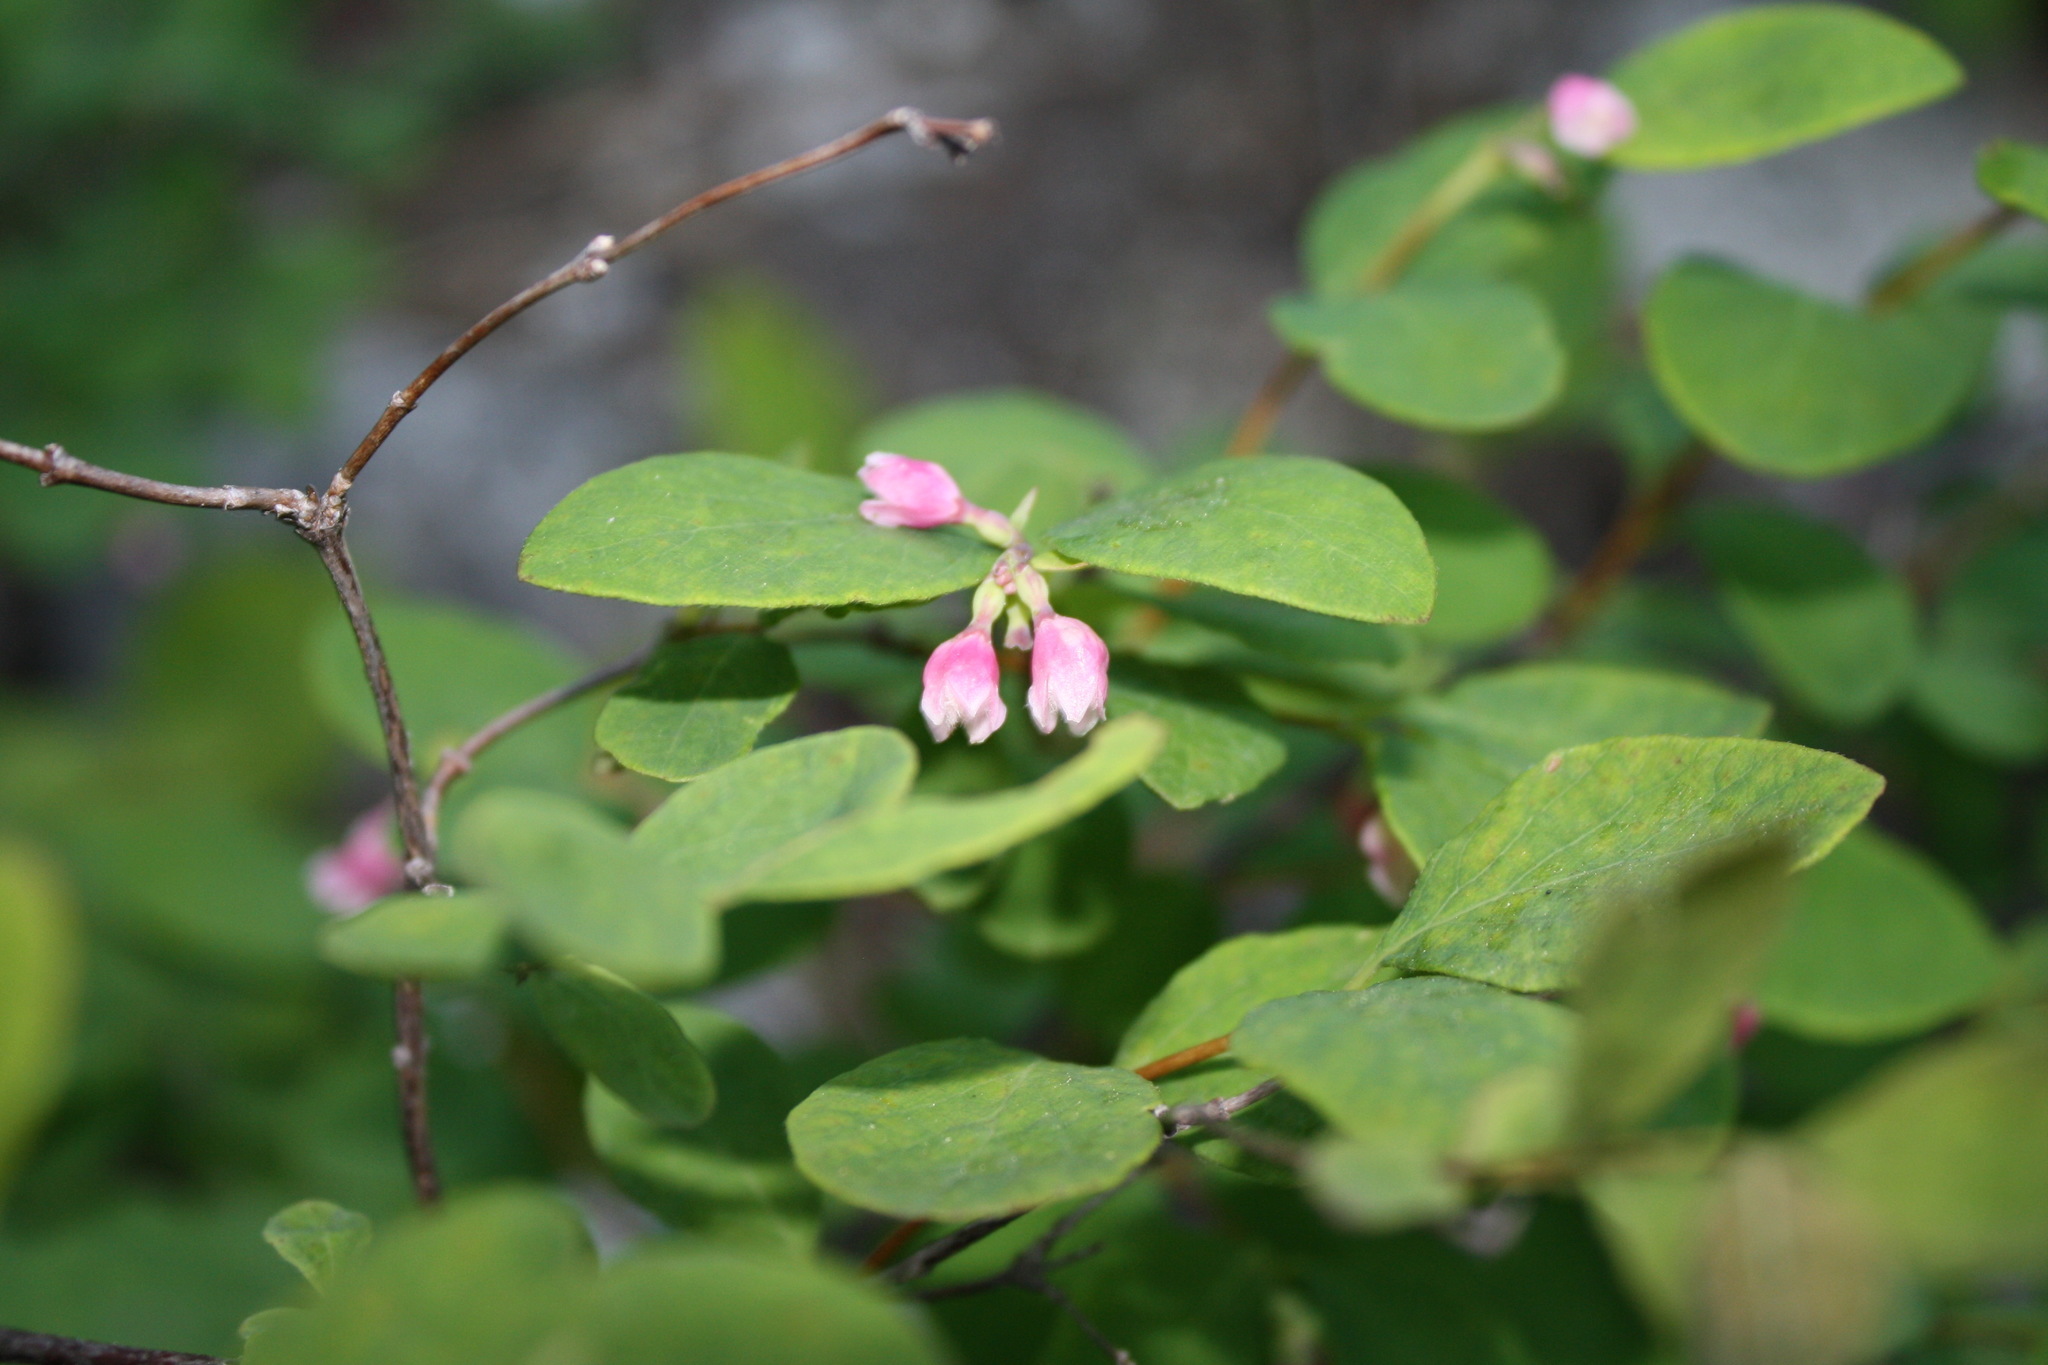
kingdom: Plantae
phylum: Tracheophyta
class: Magnoliopsida
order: Dipsacales
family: Caprifoliaceae
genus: Symphoricarpos
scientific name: Symphoricarpos albus
